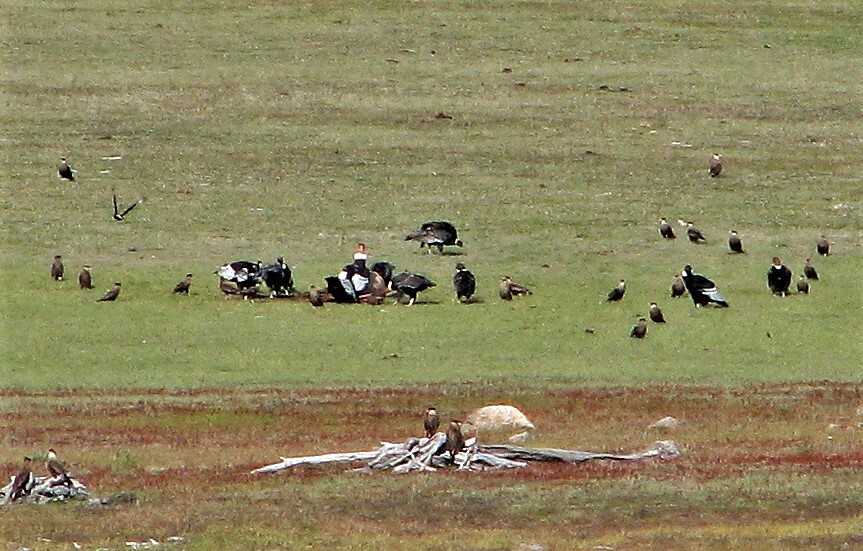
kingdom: Animalia
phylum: Chordata
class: Aves
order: Accipitriformes
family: Cathartidae
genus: Vultur
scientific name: Vultur gryphus
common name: Andean condor
